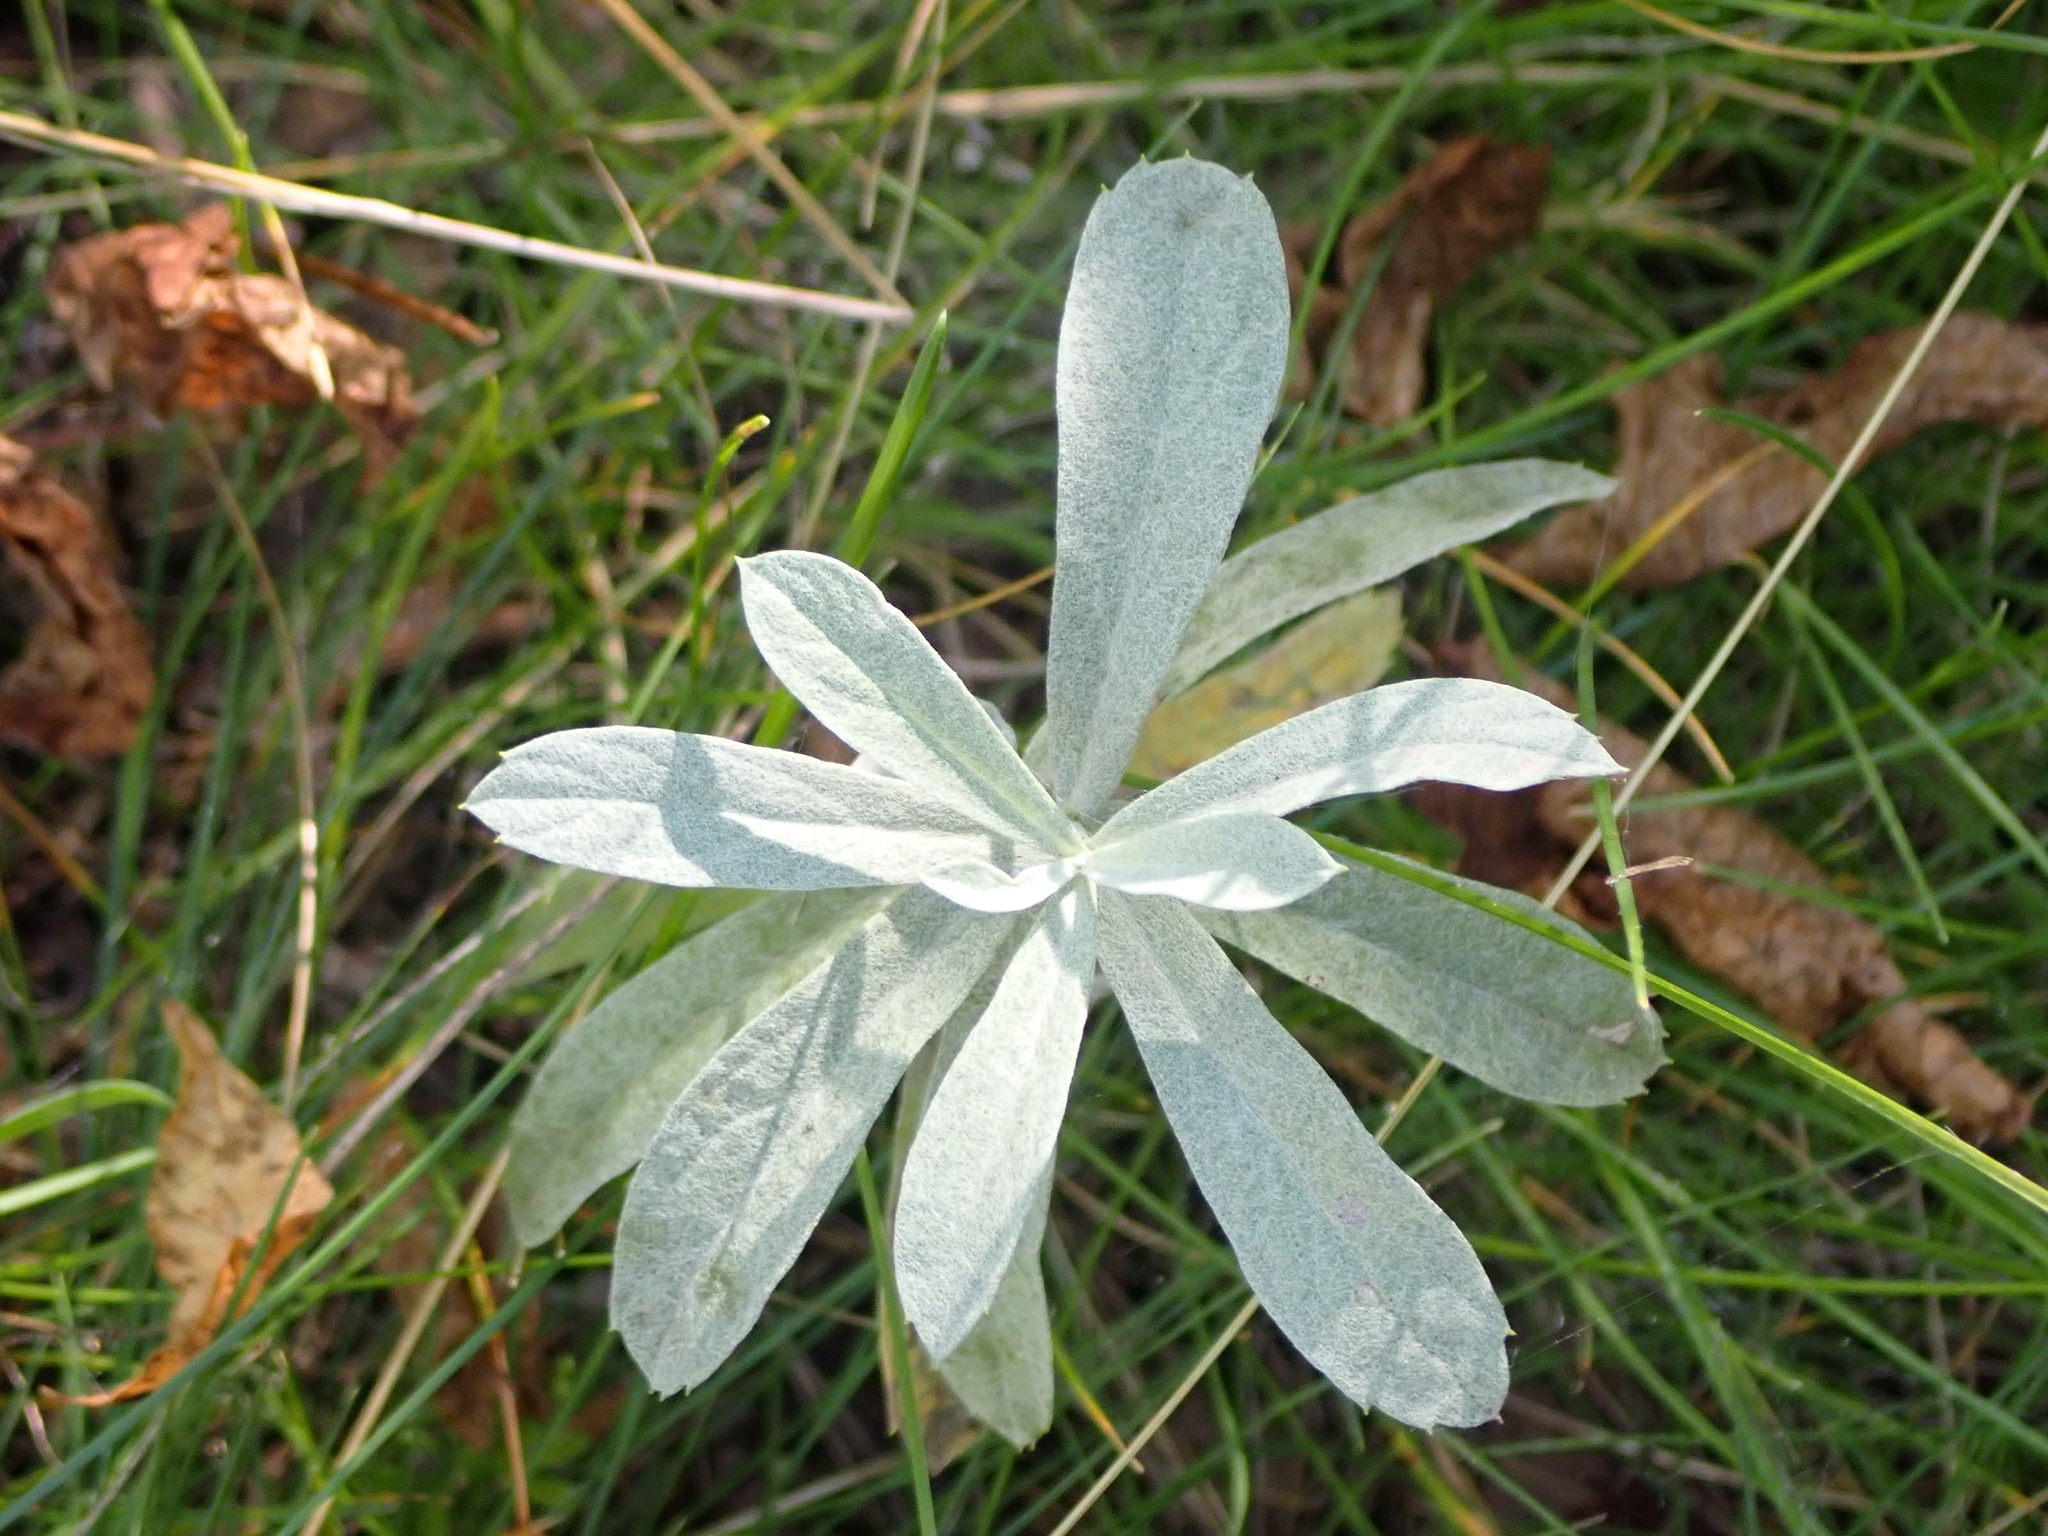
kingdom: Plantae
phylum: Tracheophyta
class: Magnoliopsida
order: Asterales
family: Asteraceae
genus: Artemisia
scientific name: Artemisia ludoviciana
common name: Western mugwort
